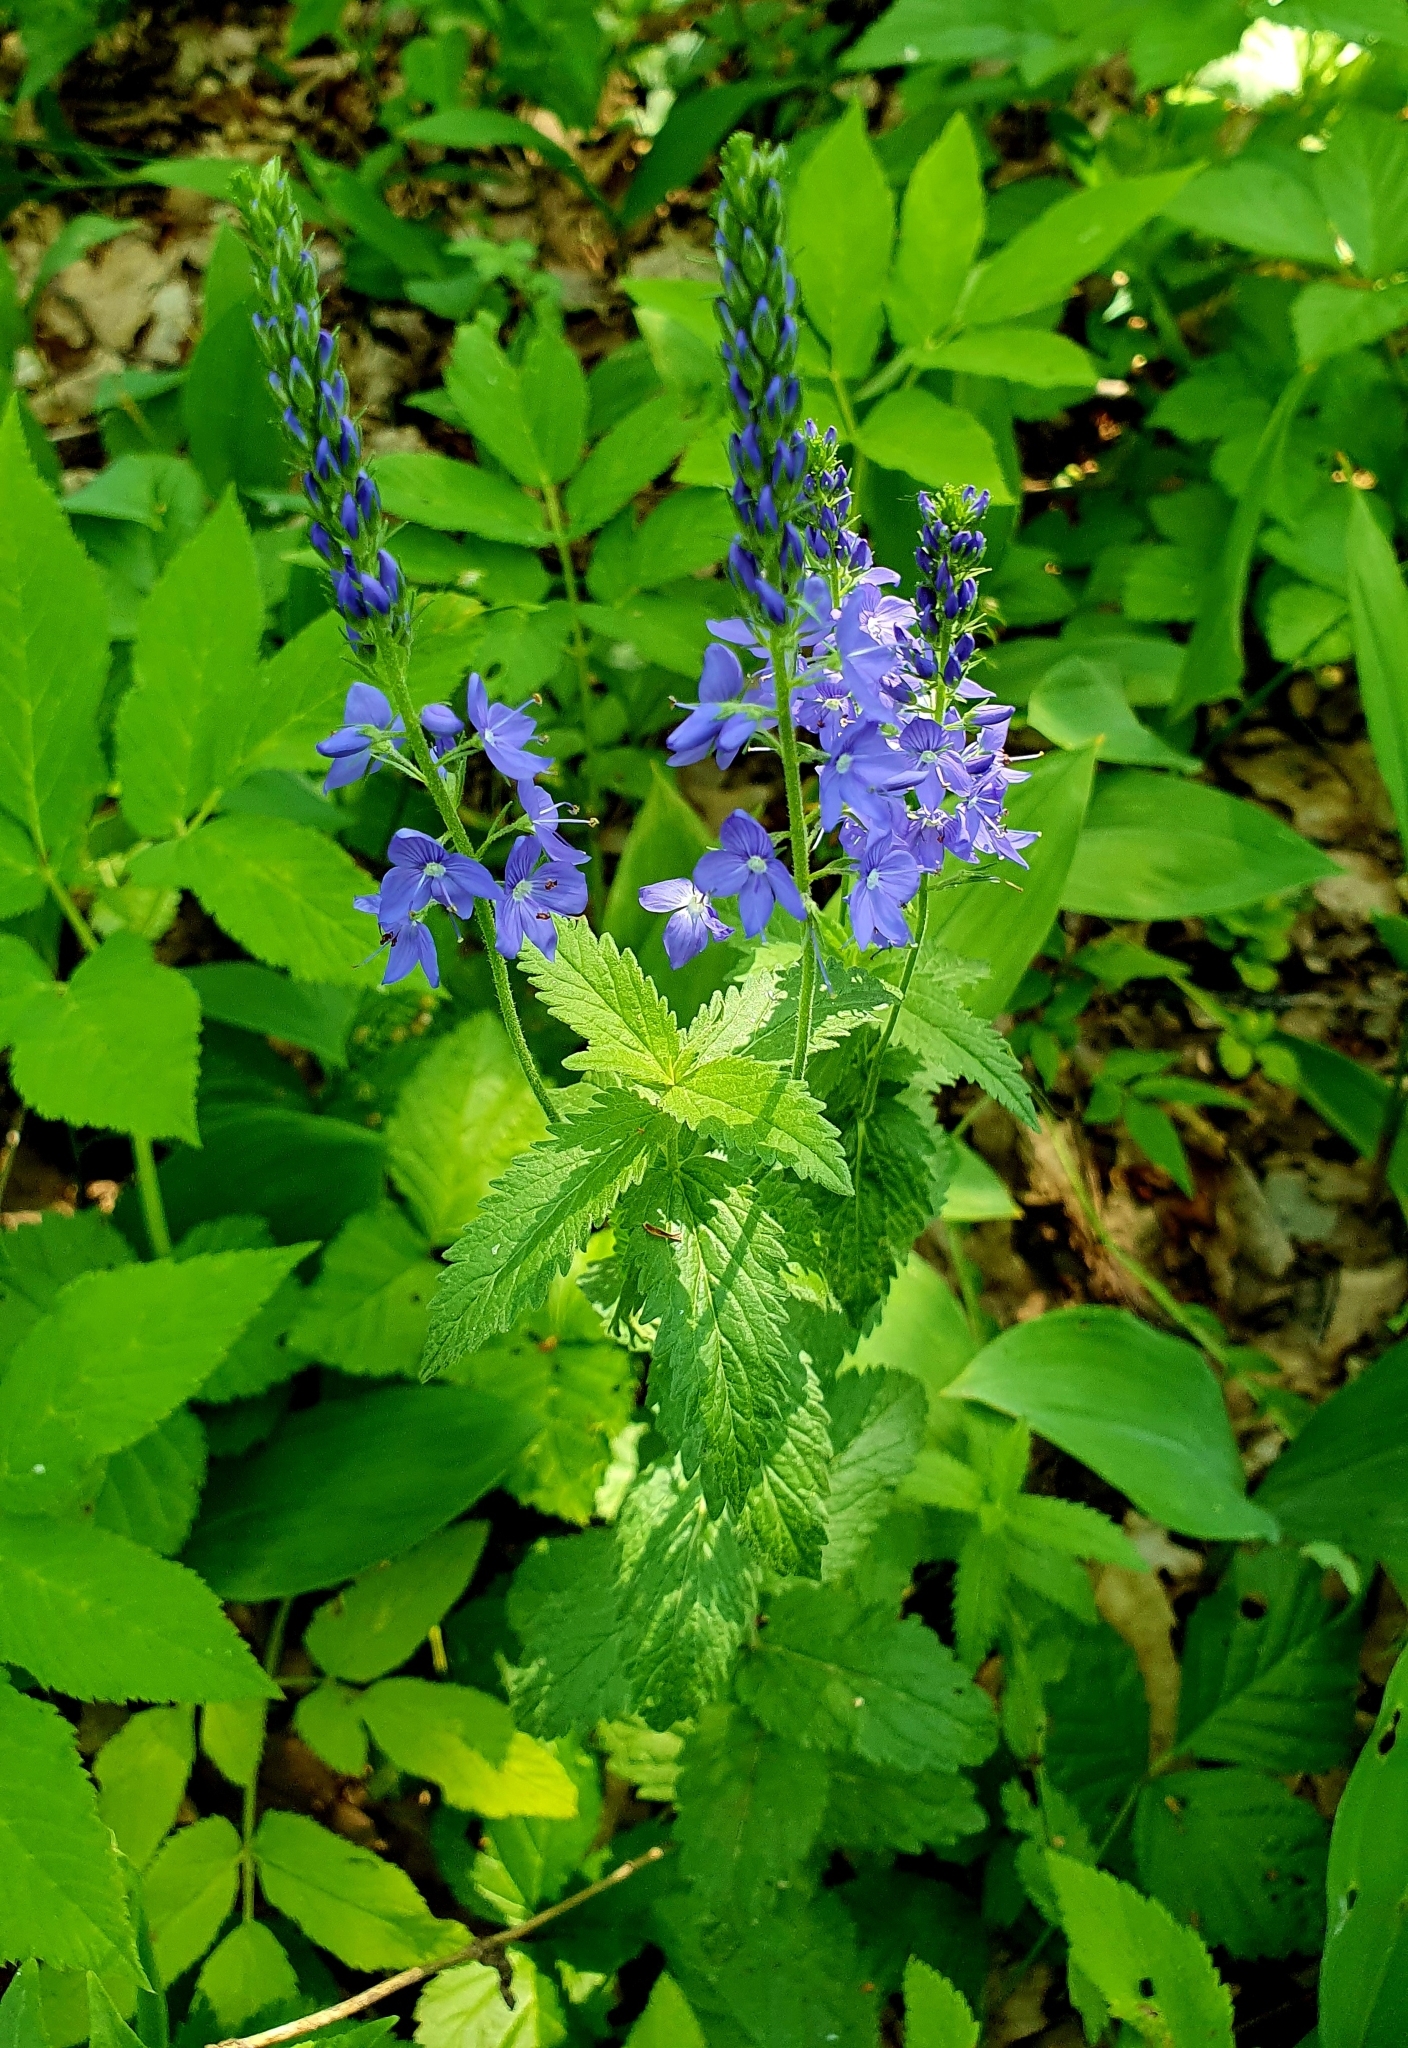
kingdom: Plantae
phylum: Tracheophyta
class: Magnoliopsida
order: Lamiales
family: Plantaginaceae
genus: Veronica
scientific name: Veronica teucrium
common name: Large speedwell
